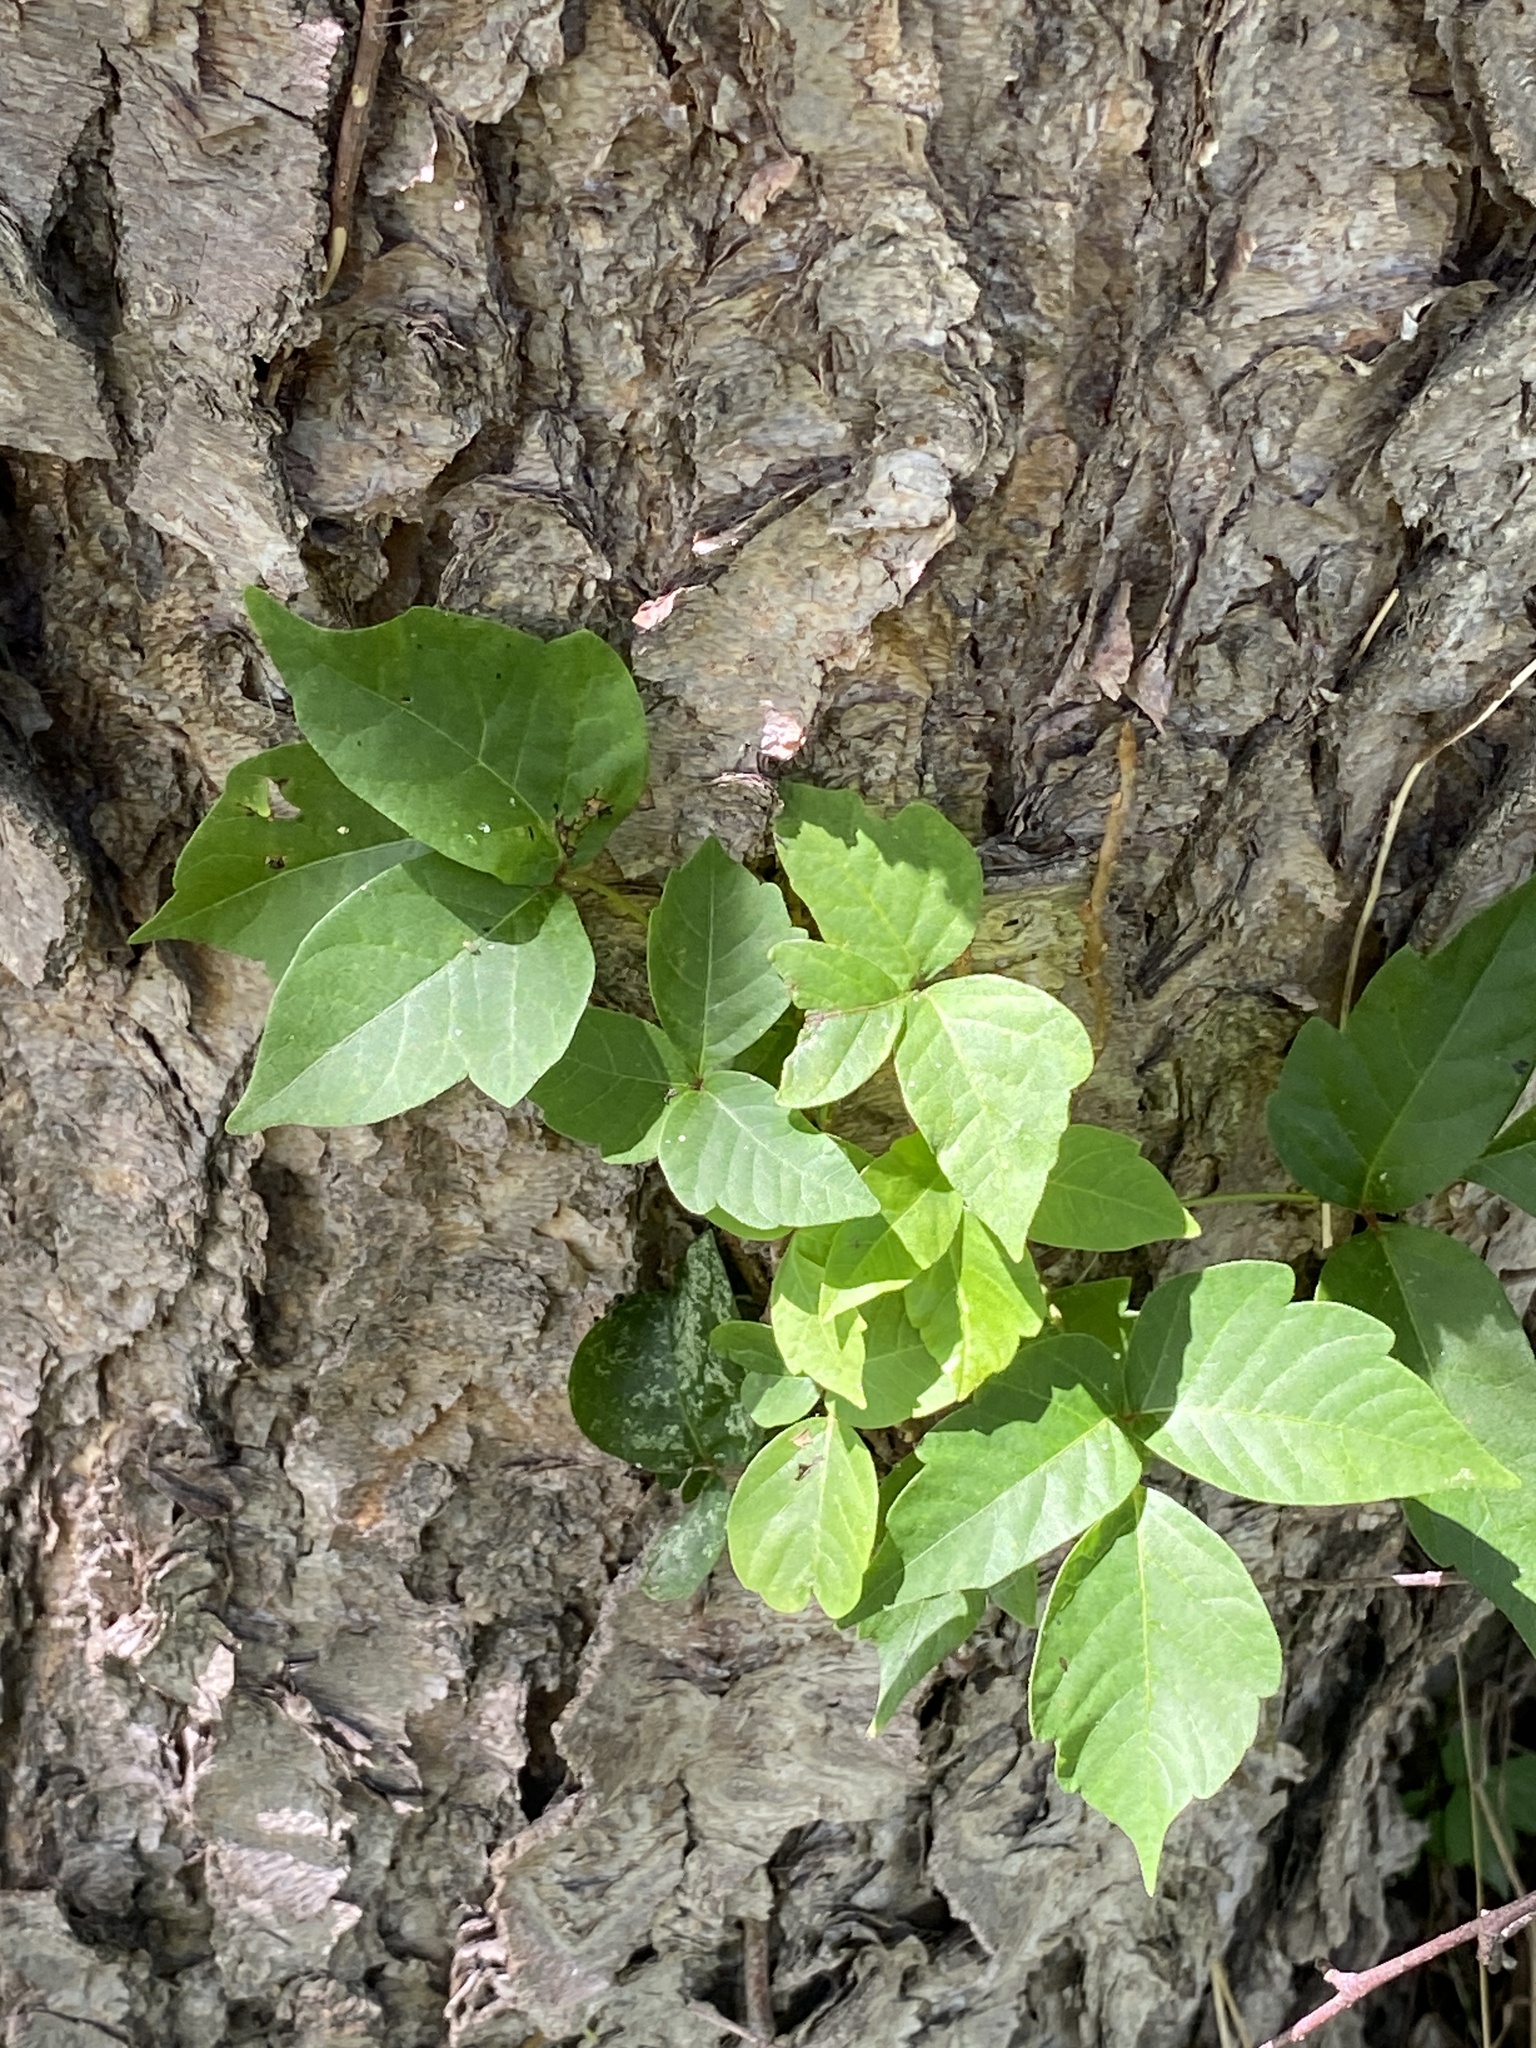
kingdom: Plantae
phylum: Tracheophyta
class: Magnoliopsida
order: Sapindales
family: Anacardiaceae
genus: Toxicodendron
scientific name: Toxicodendron radicans
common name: Poison ivy
